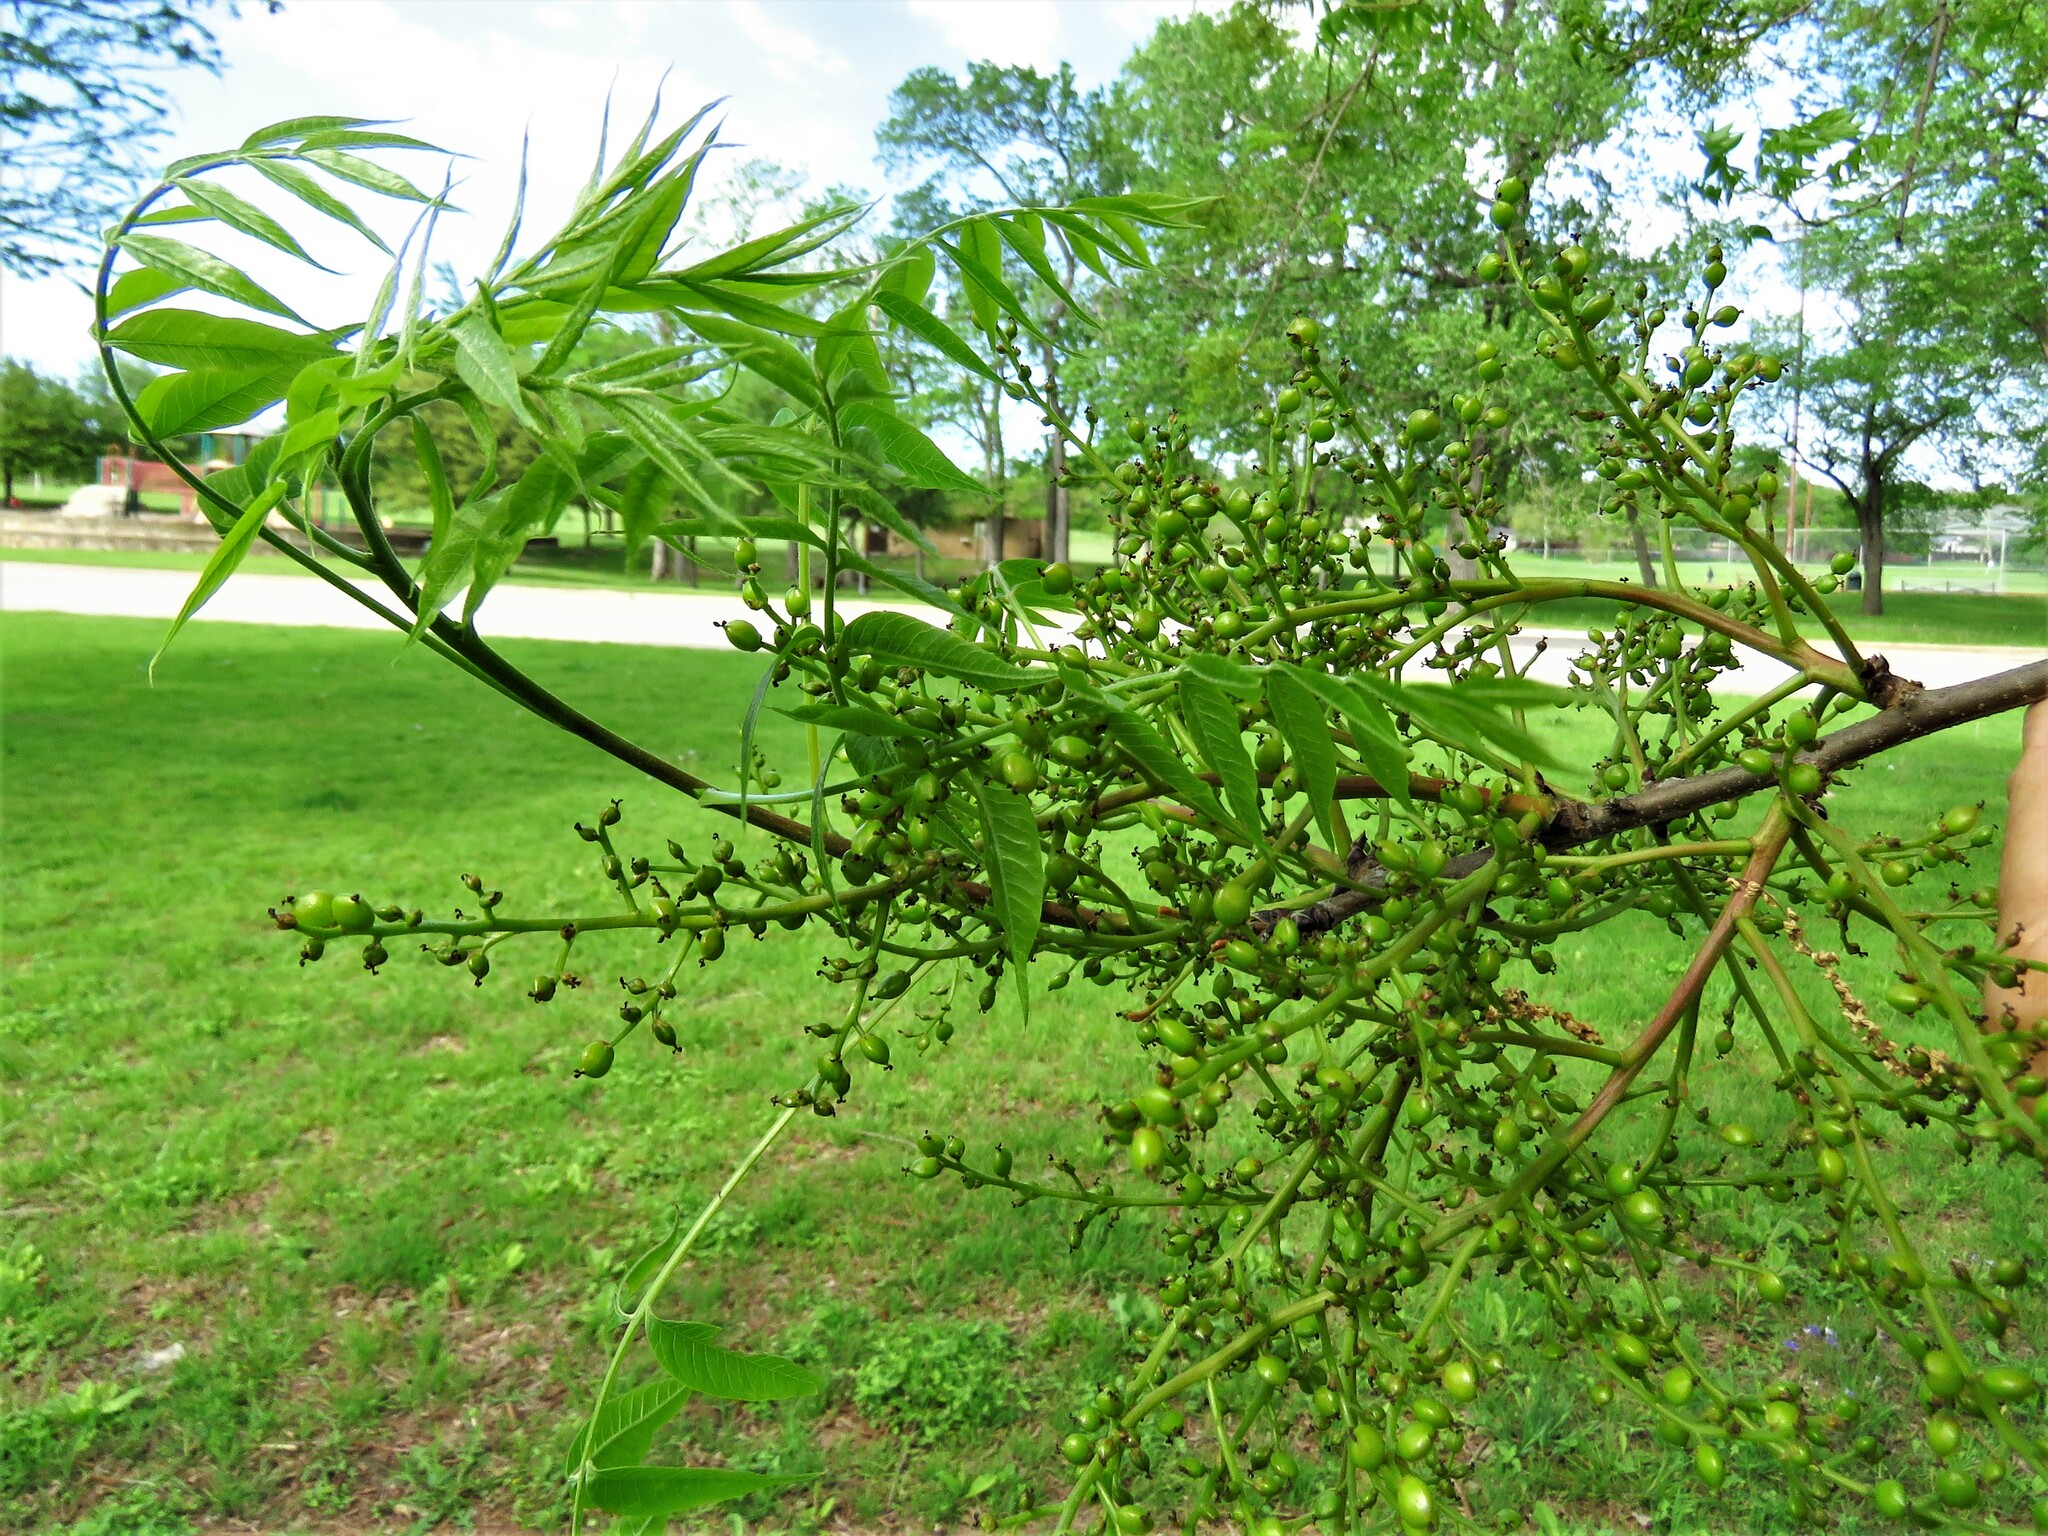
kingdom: Plantae
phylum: Tracheophyta
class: Magnoliopsida
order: Sapindales
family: Anacardiaceae
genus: Pistacia
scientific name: Pistacia chinensis
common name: Chinese pistache
